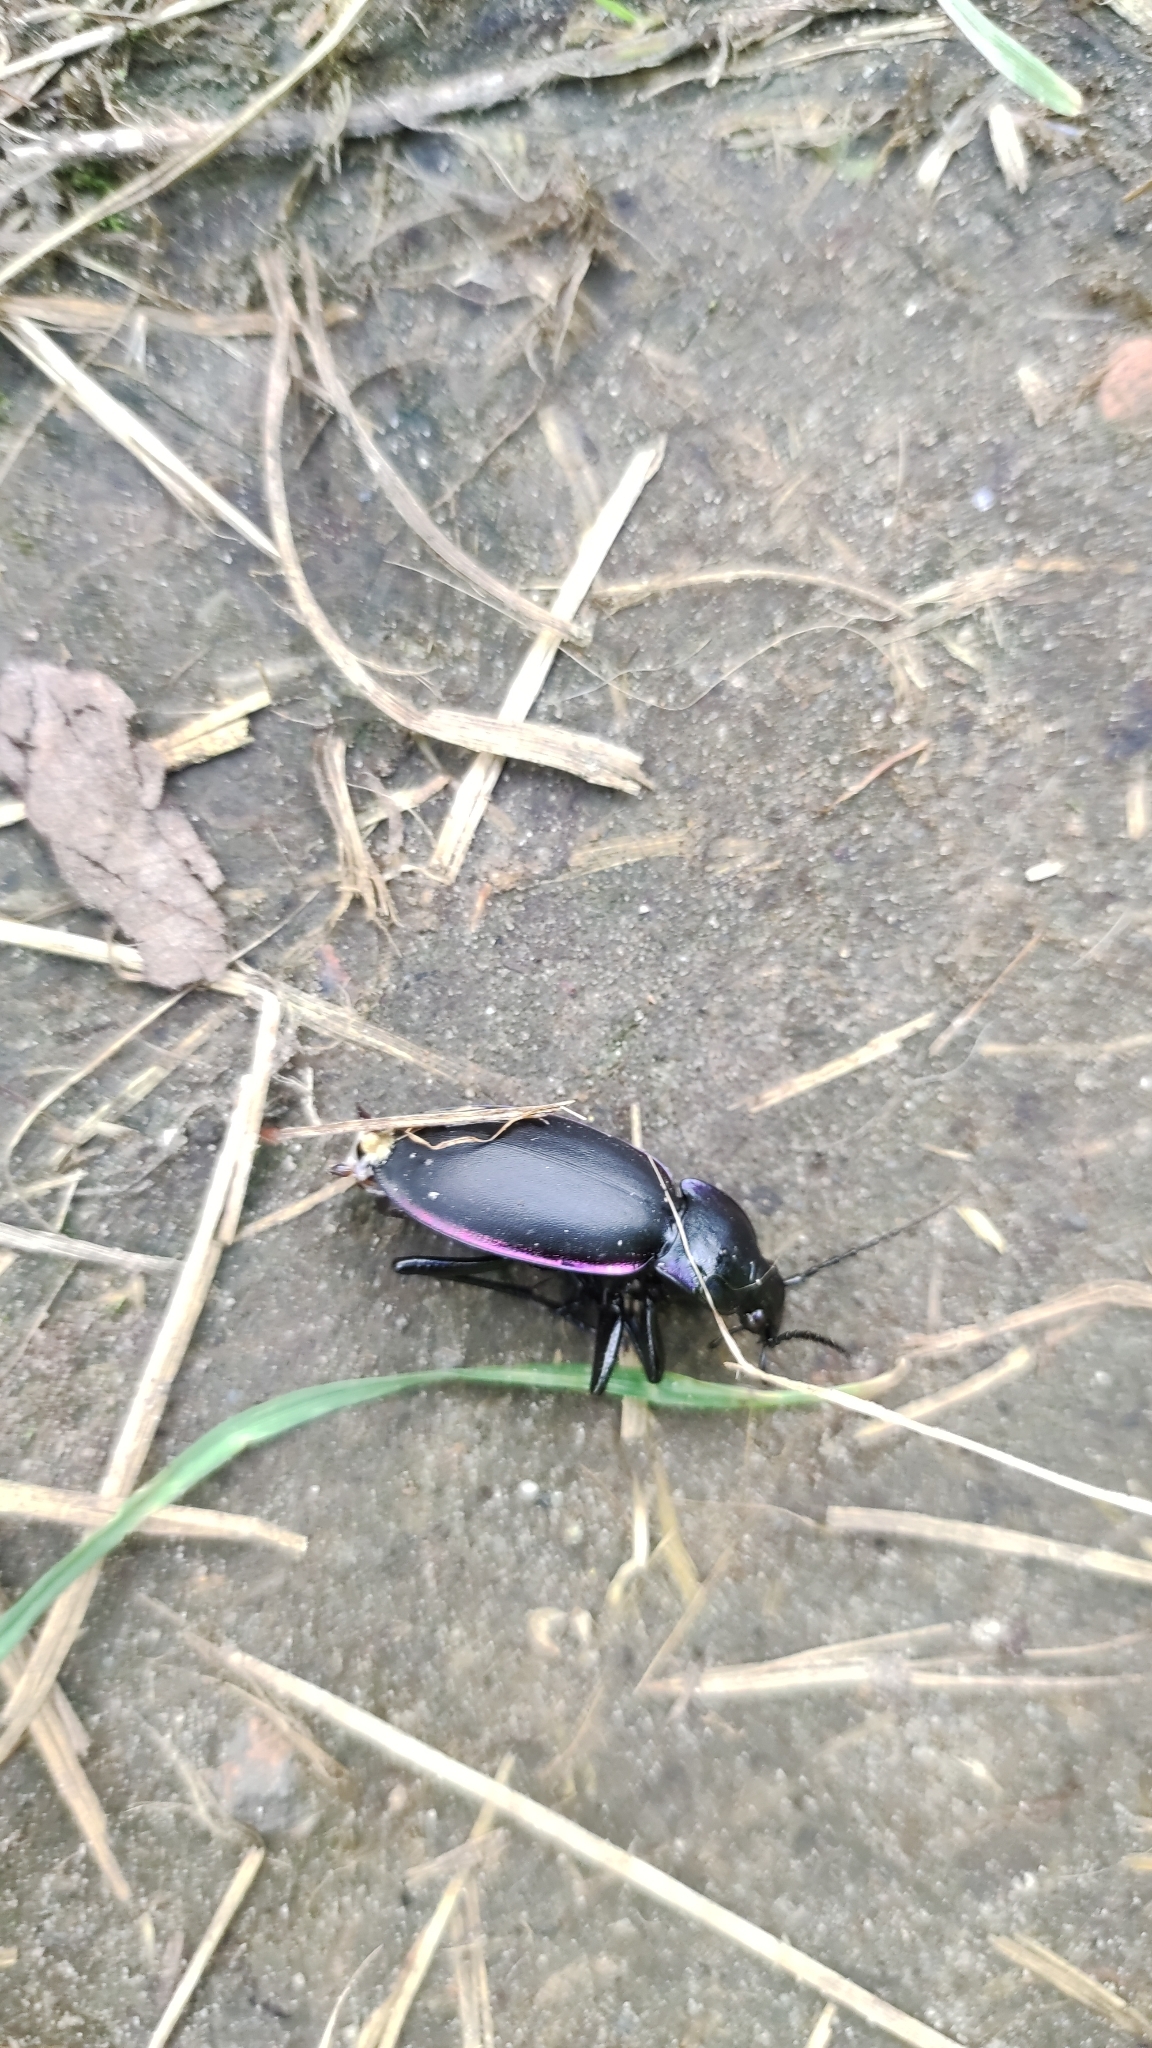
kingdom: Animalia
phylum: Arthropoda
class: Insecta
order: Coleoptera
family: Carabidae
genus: Carabus
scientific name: Carabus violaceus
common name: Violet ground beetle
